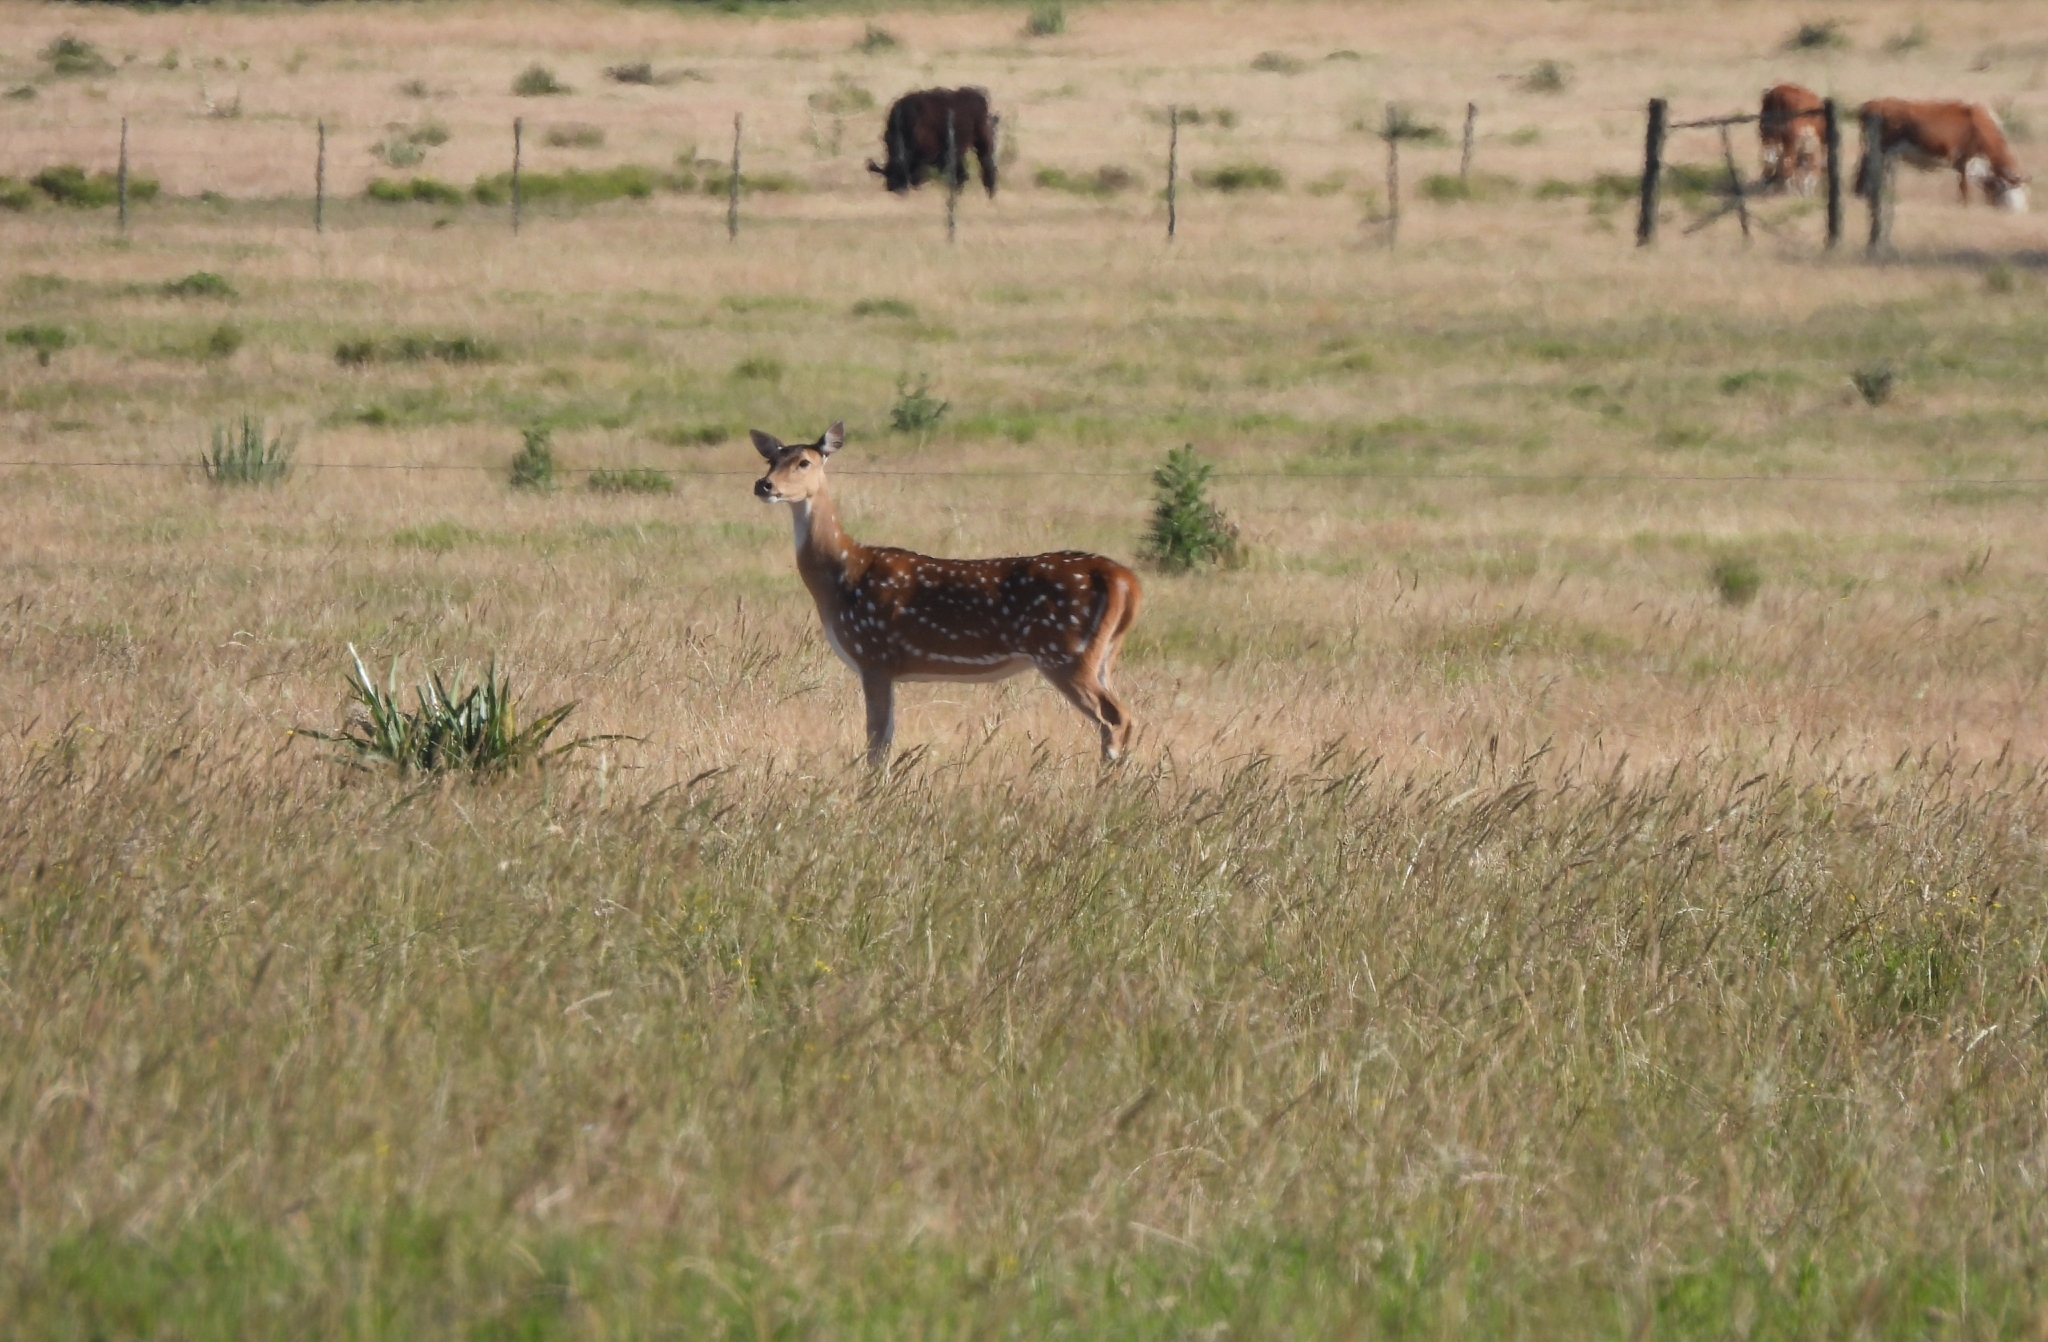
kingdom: Animalia
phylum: Chordata
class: Mammalia
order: Artiodactyla
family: Cervidae
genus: Axis
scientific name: Axis axis
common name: Chital
